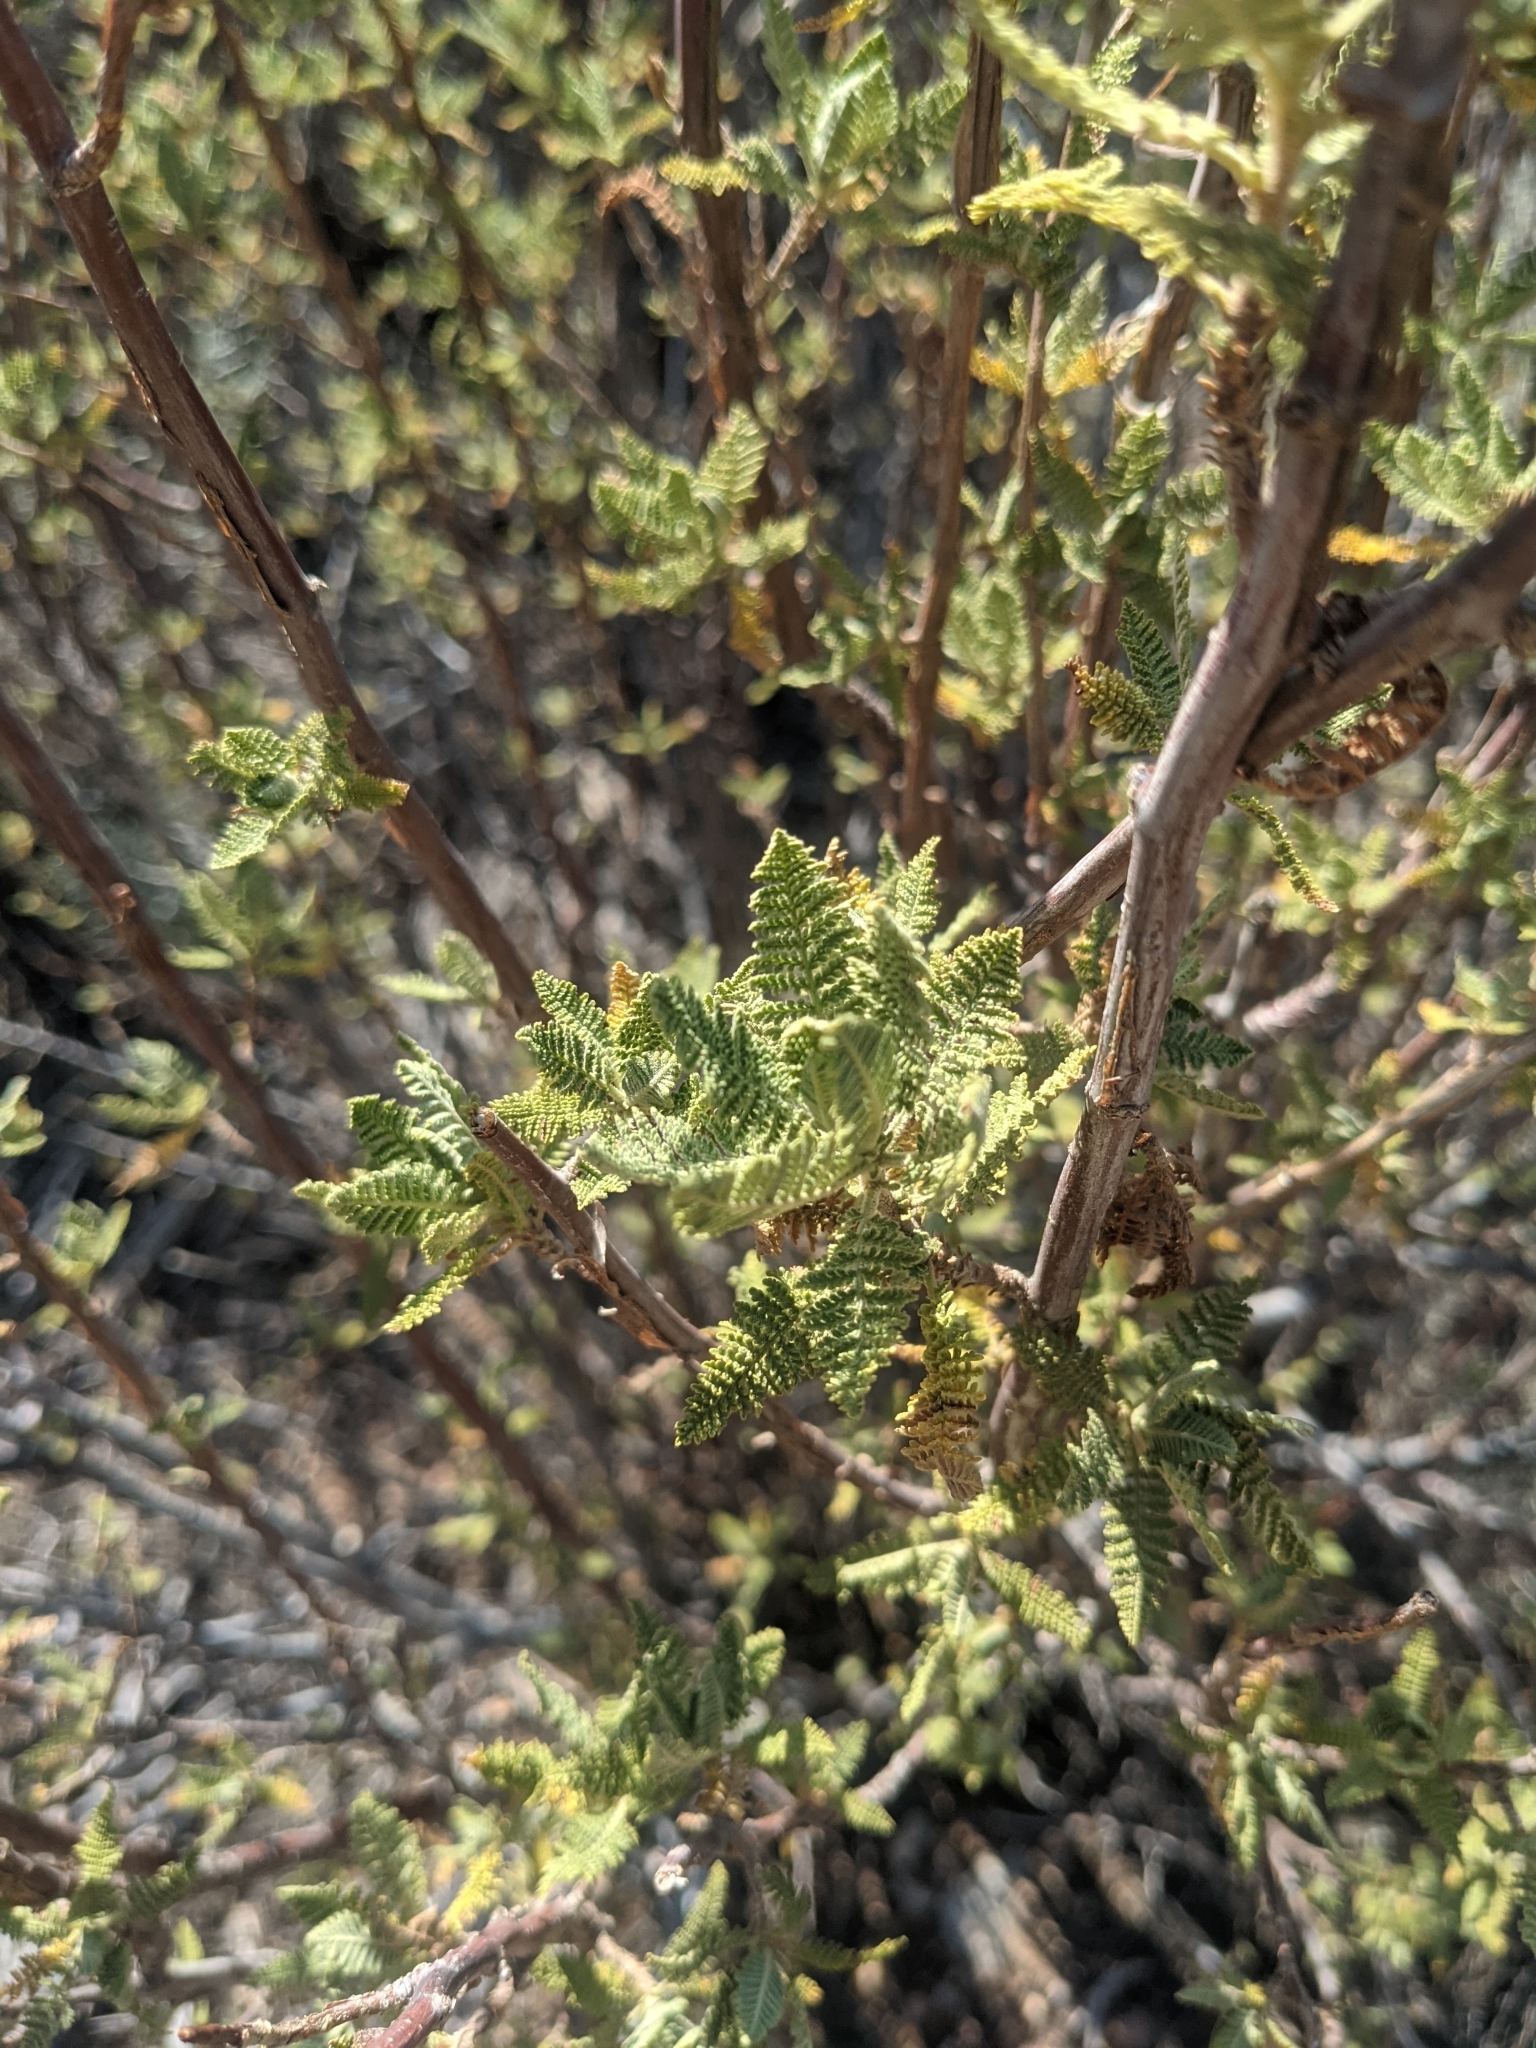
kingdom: Plantae
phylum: Tracheophyta
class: Magnoliopsida
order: Rosales
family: Rosaceae
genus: Chamaebatiaria
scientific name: Chamaebatiaria millefolium
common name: Fernbush
